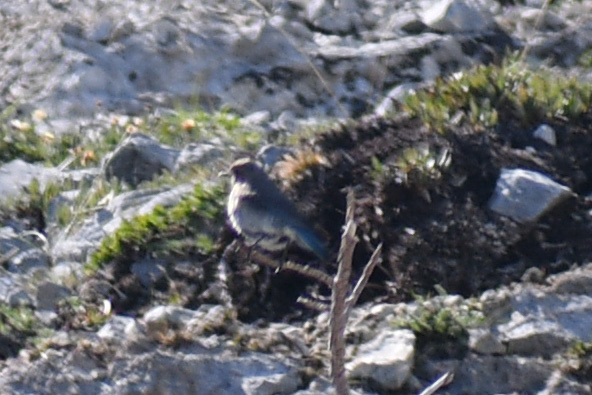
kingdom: Animalia
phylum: Chordata
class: Aves
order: Passeriformes
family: Turdidae
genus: Sialia
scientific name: Sialia currucoides
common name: Mountain bluebird
